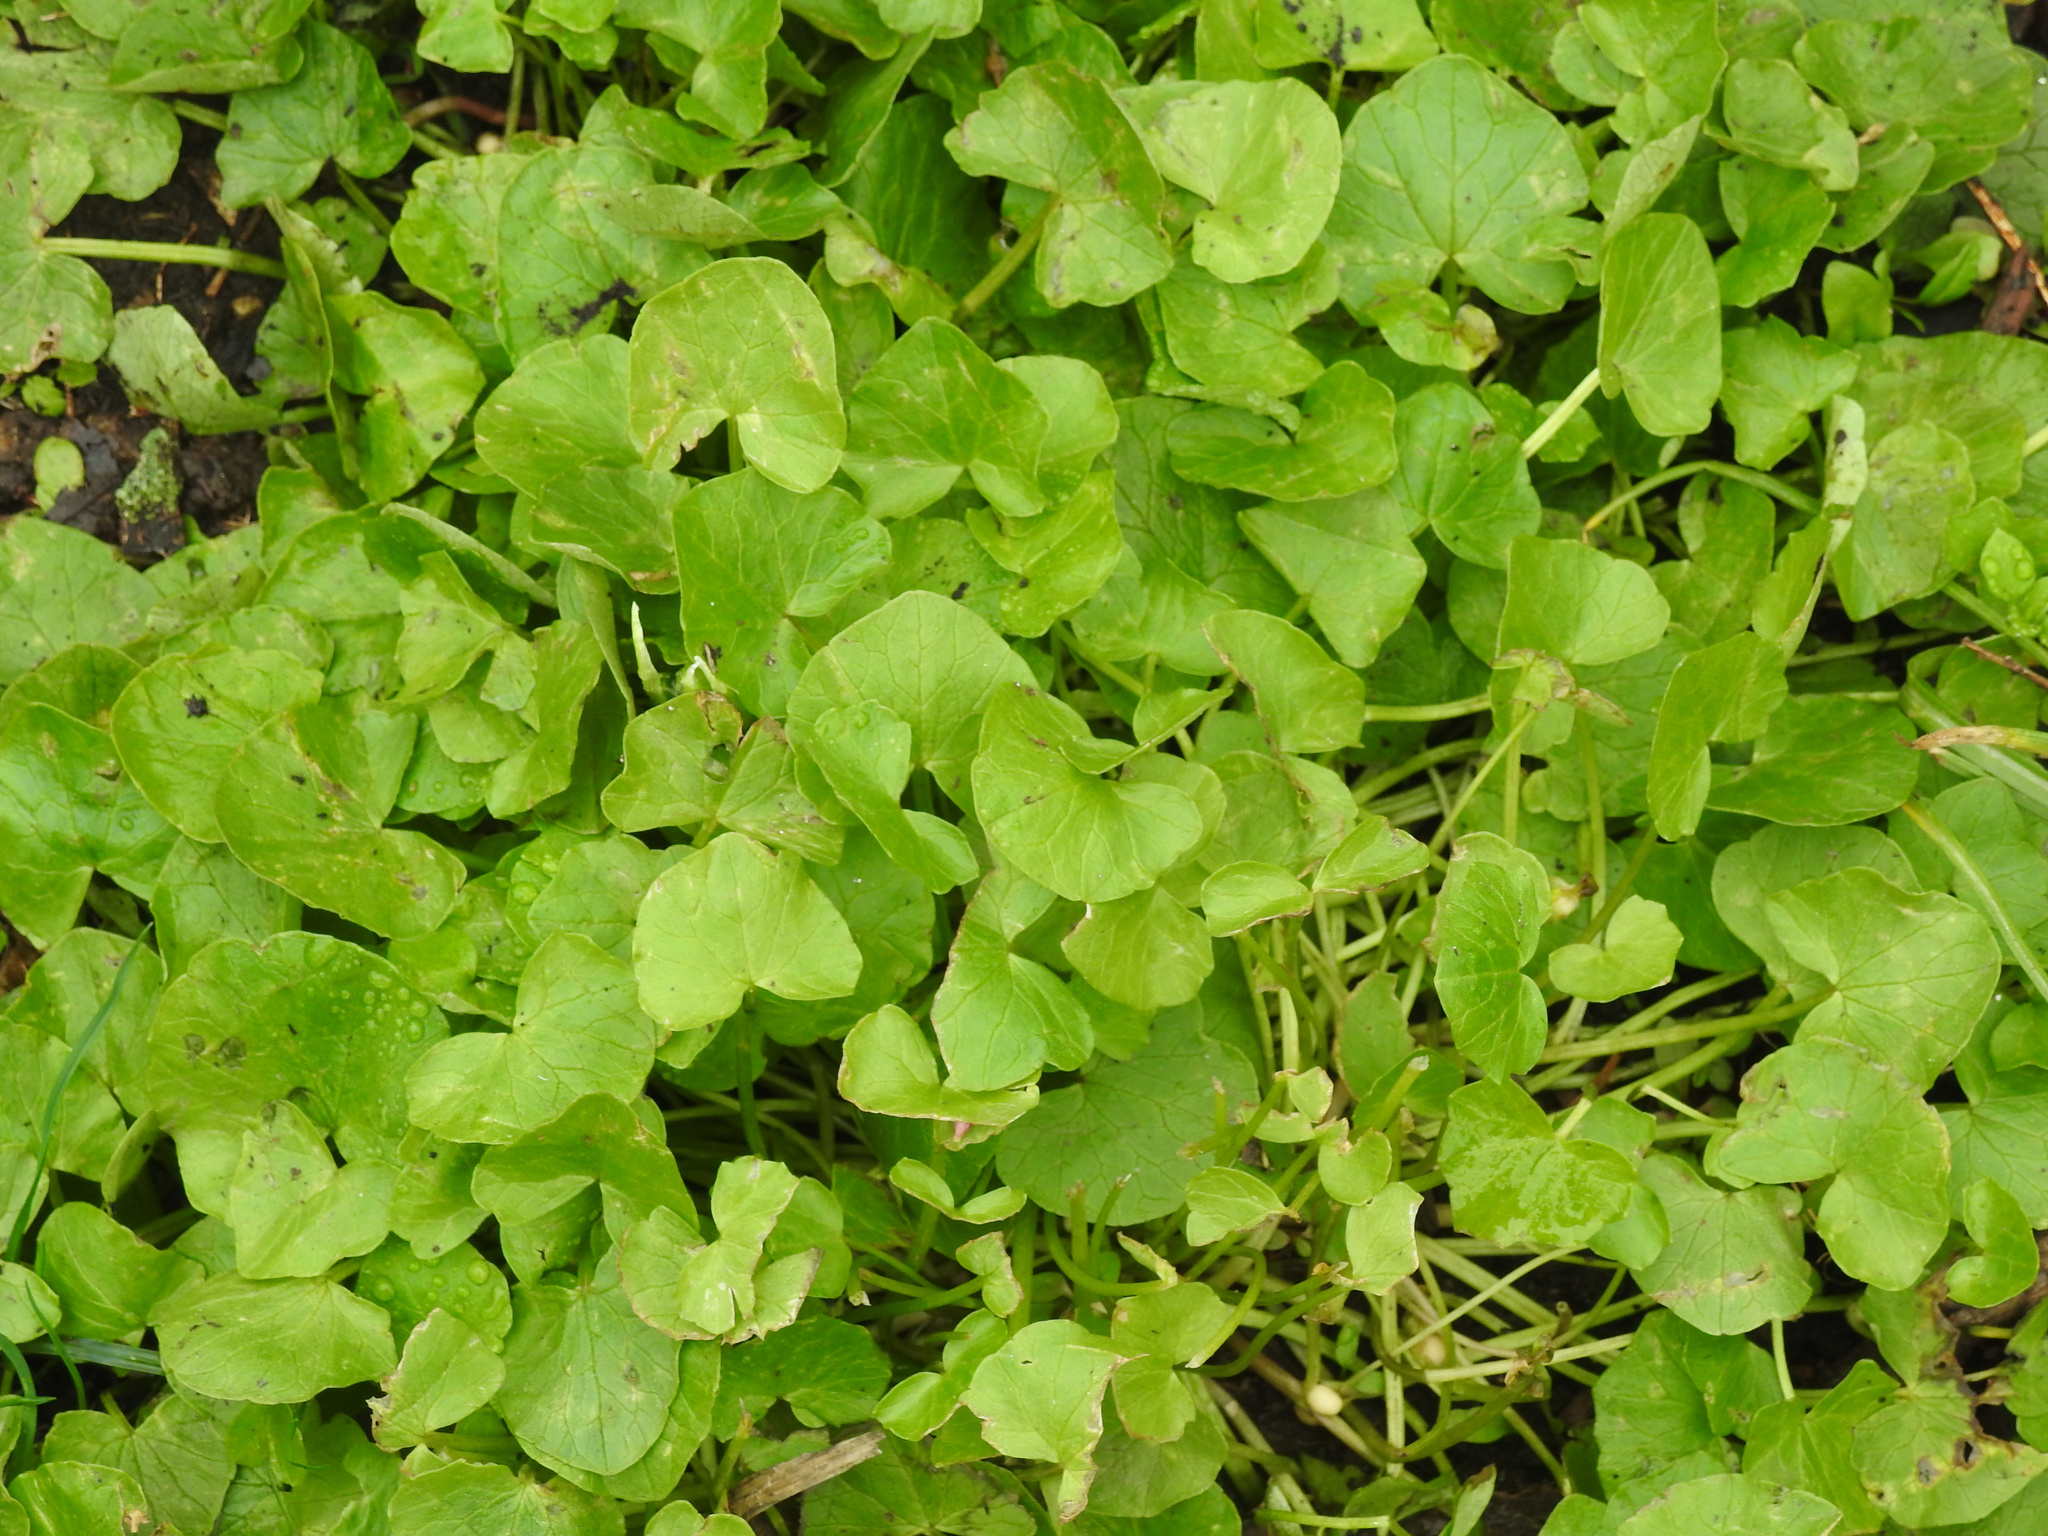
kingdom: Plantae
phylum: Tracheophyta
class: Magnoliopsida
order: Ranunculales
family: Ranunculaceae
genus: Ficaria
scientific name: Ficaria verna
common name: Lesser celandine
